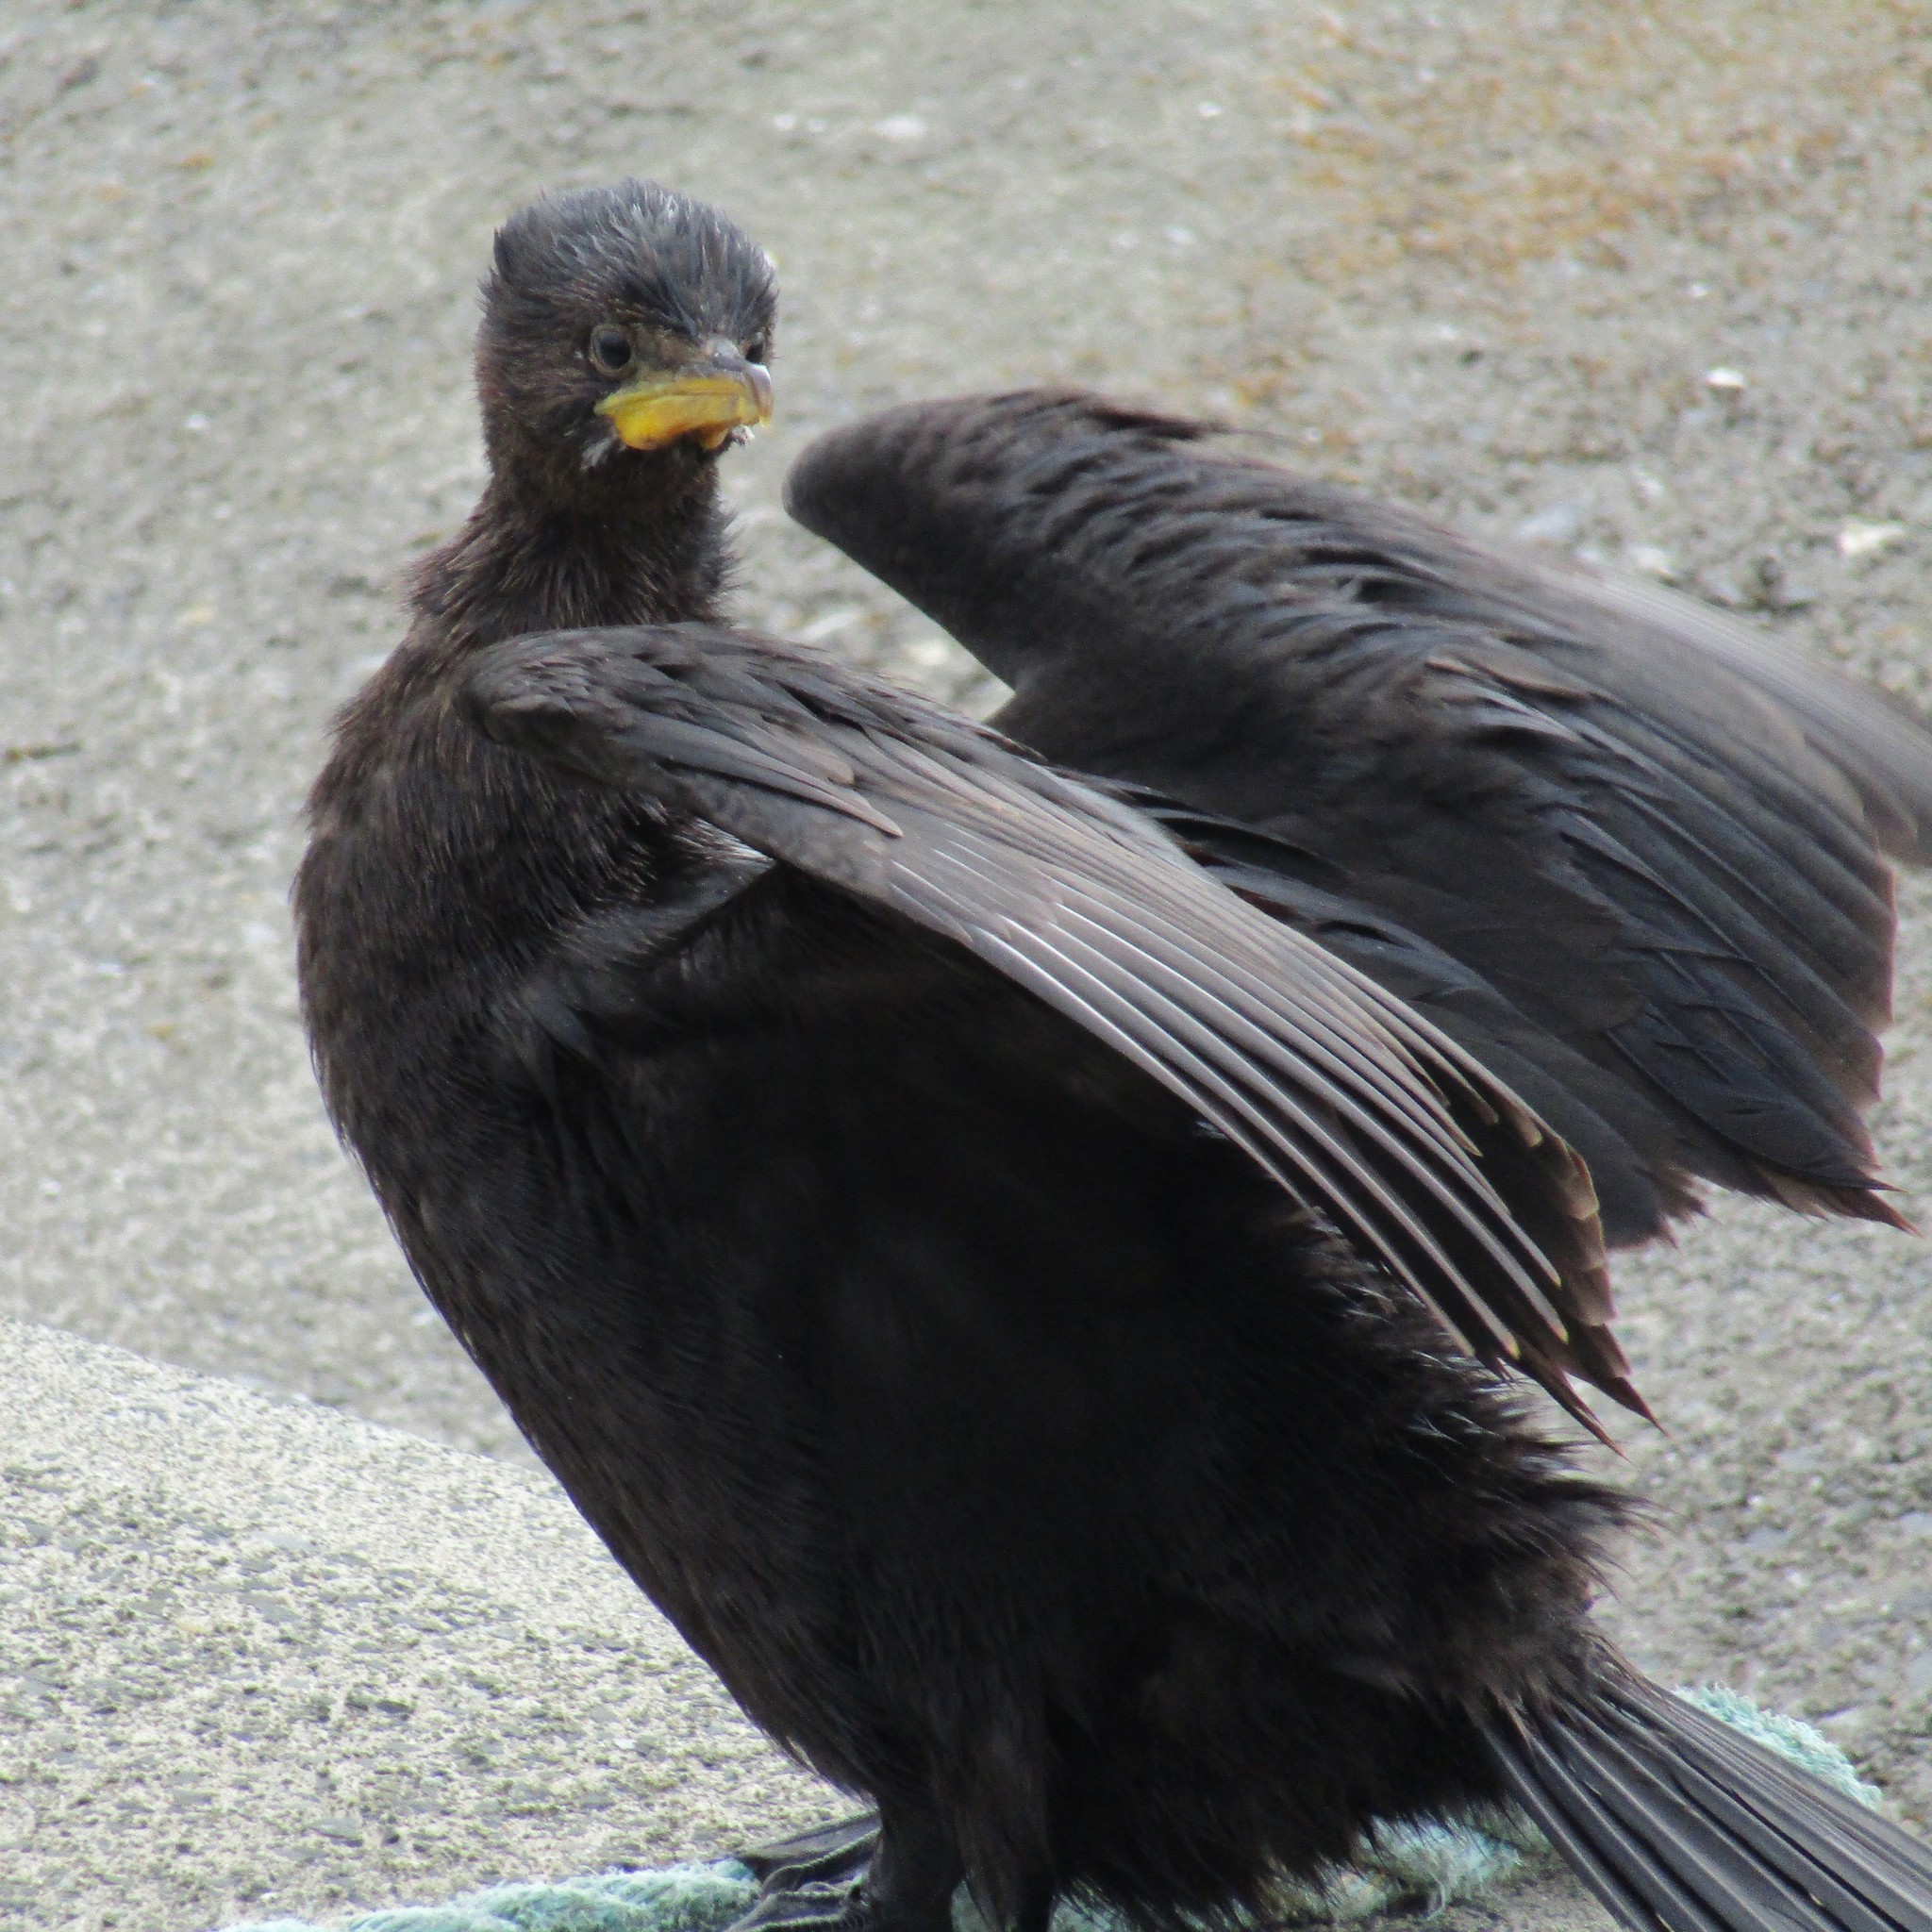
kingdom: Animalia
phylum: Chordata
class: Aves
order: Suliformes
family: Phalacrocoracidae
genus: Microcarbo
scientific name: Microcarbo melanoleucos
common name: Little pied cormorant
